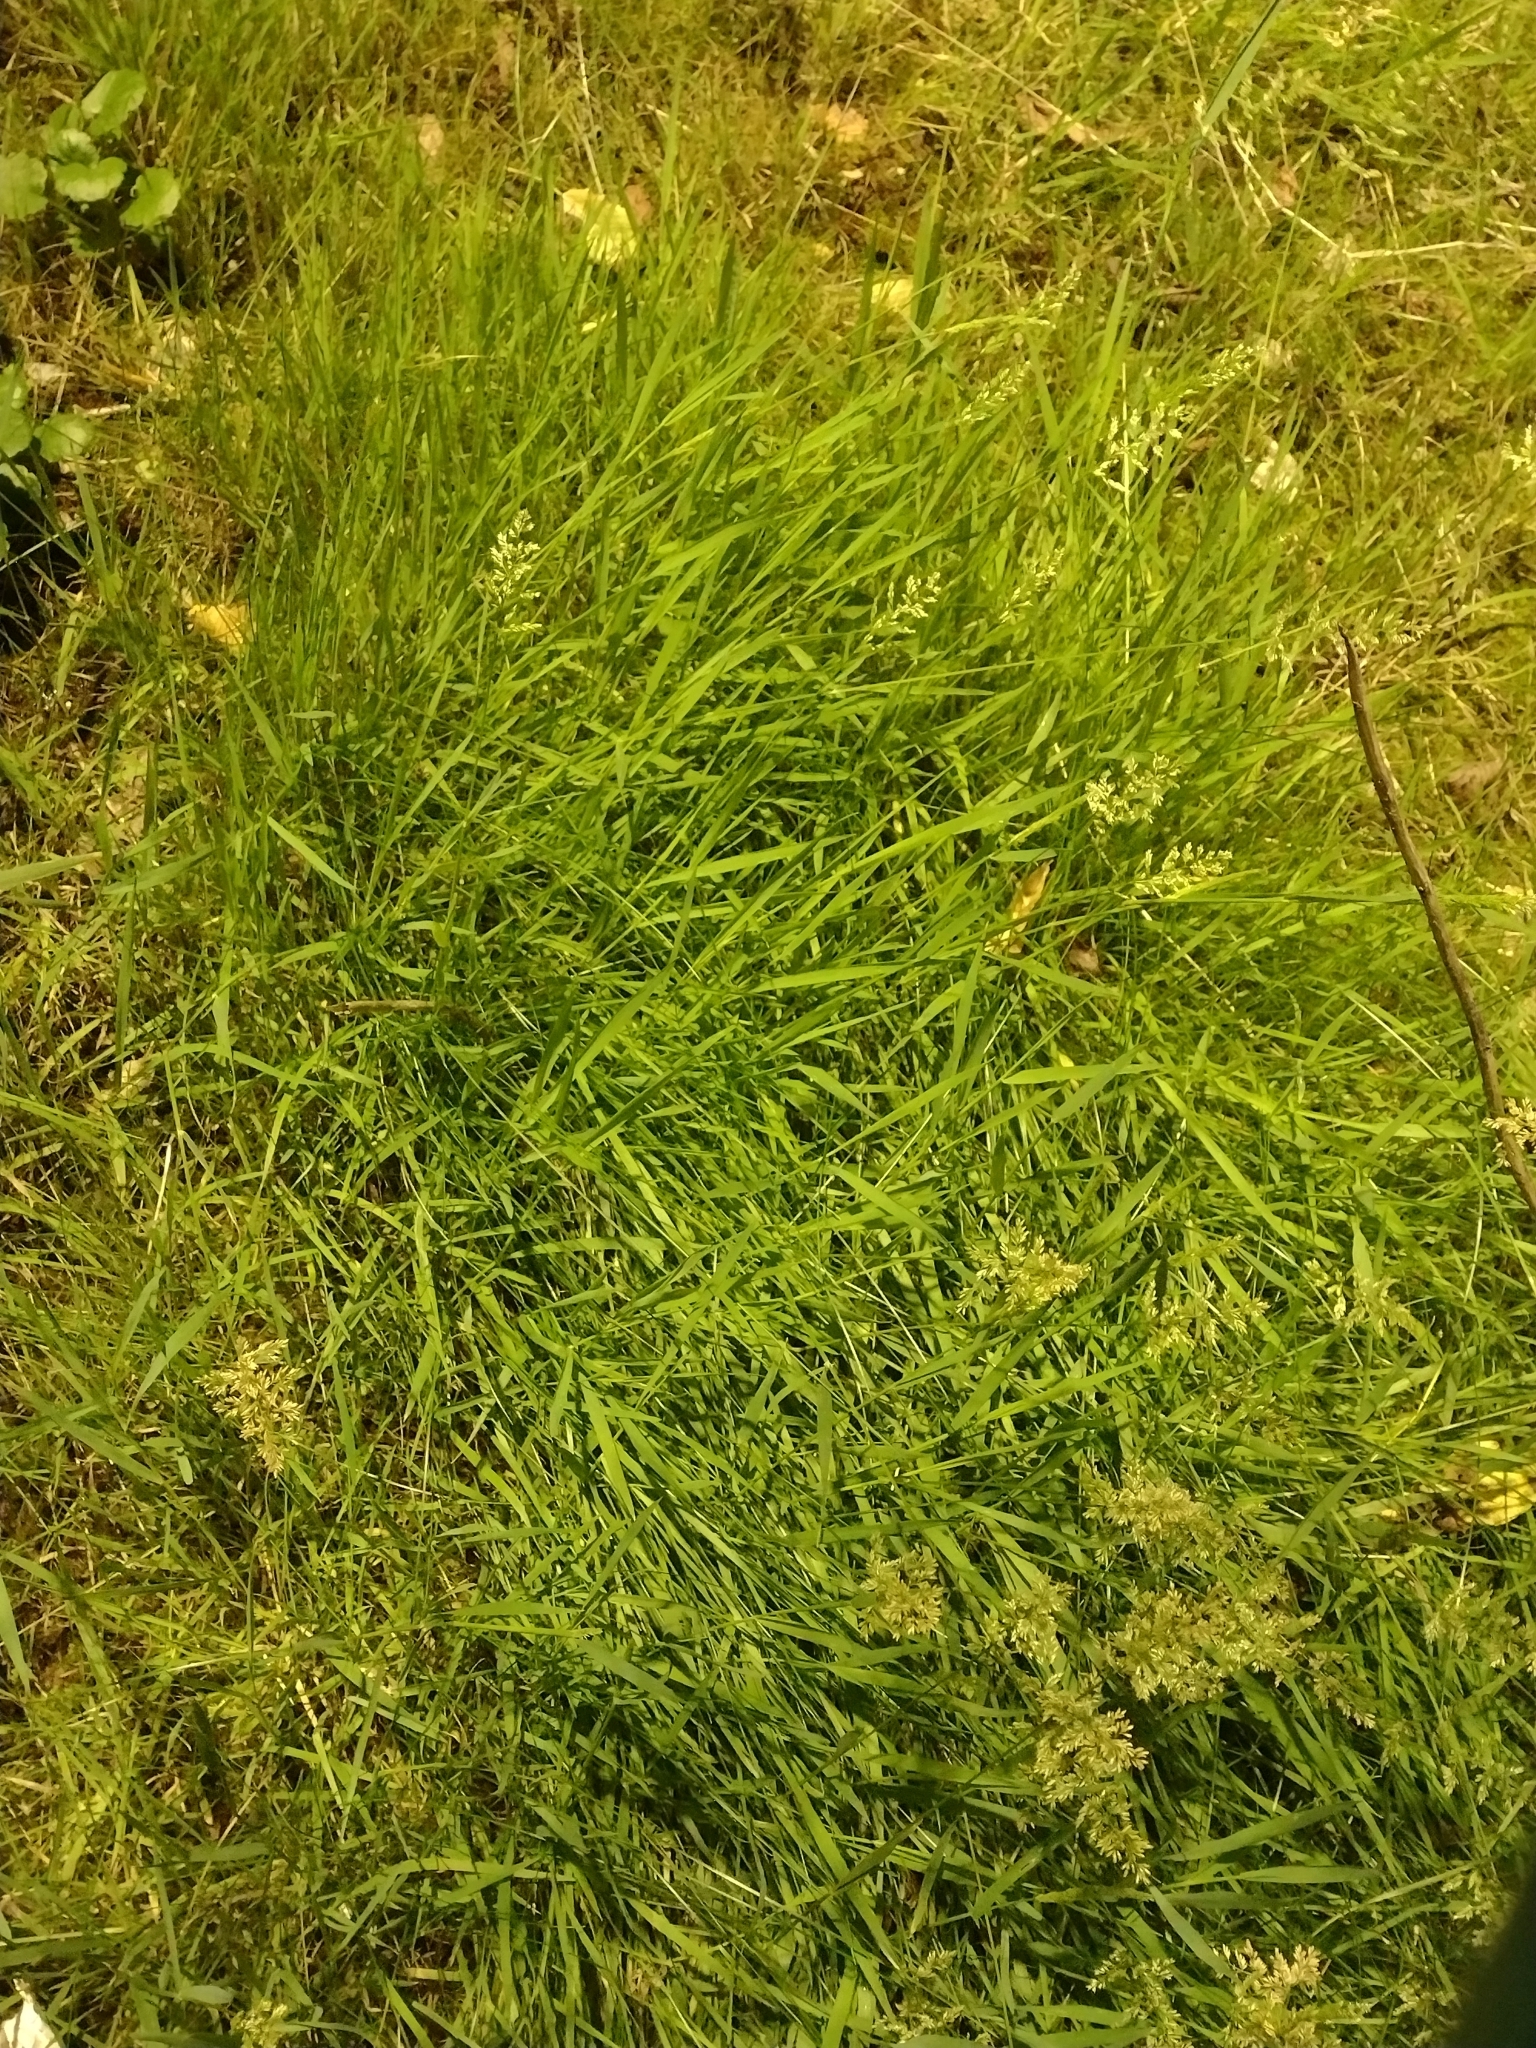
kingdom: Plantae
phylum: Tracheophyta
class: Liliopsida
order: Poales
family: Poaceae
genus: Polypogon
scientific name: Polypogon viridis
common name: Water bent
